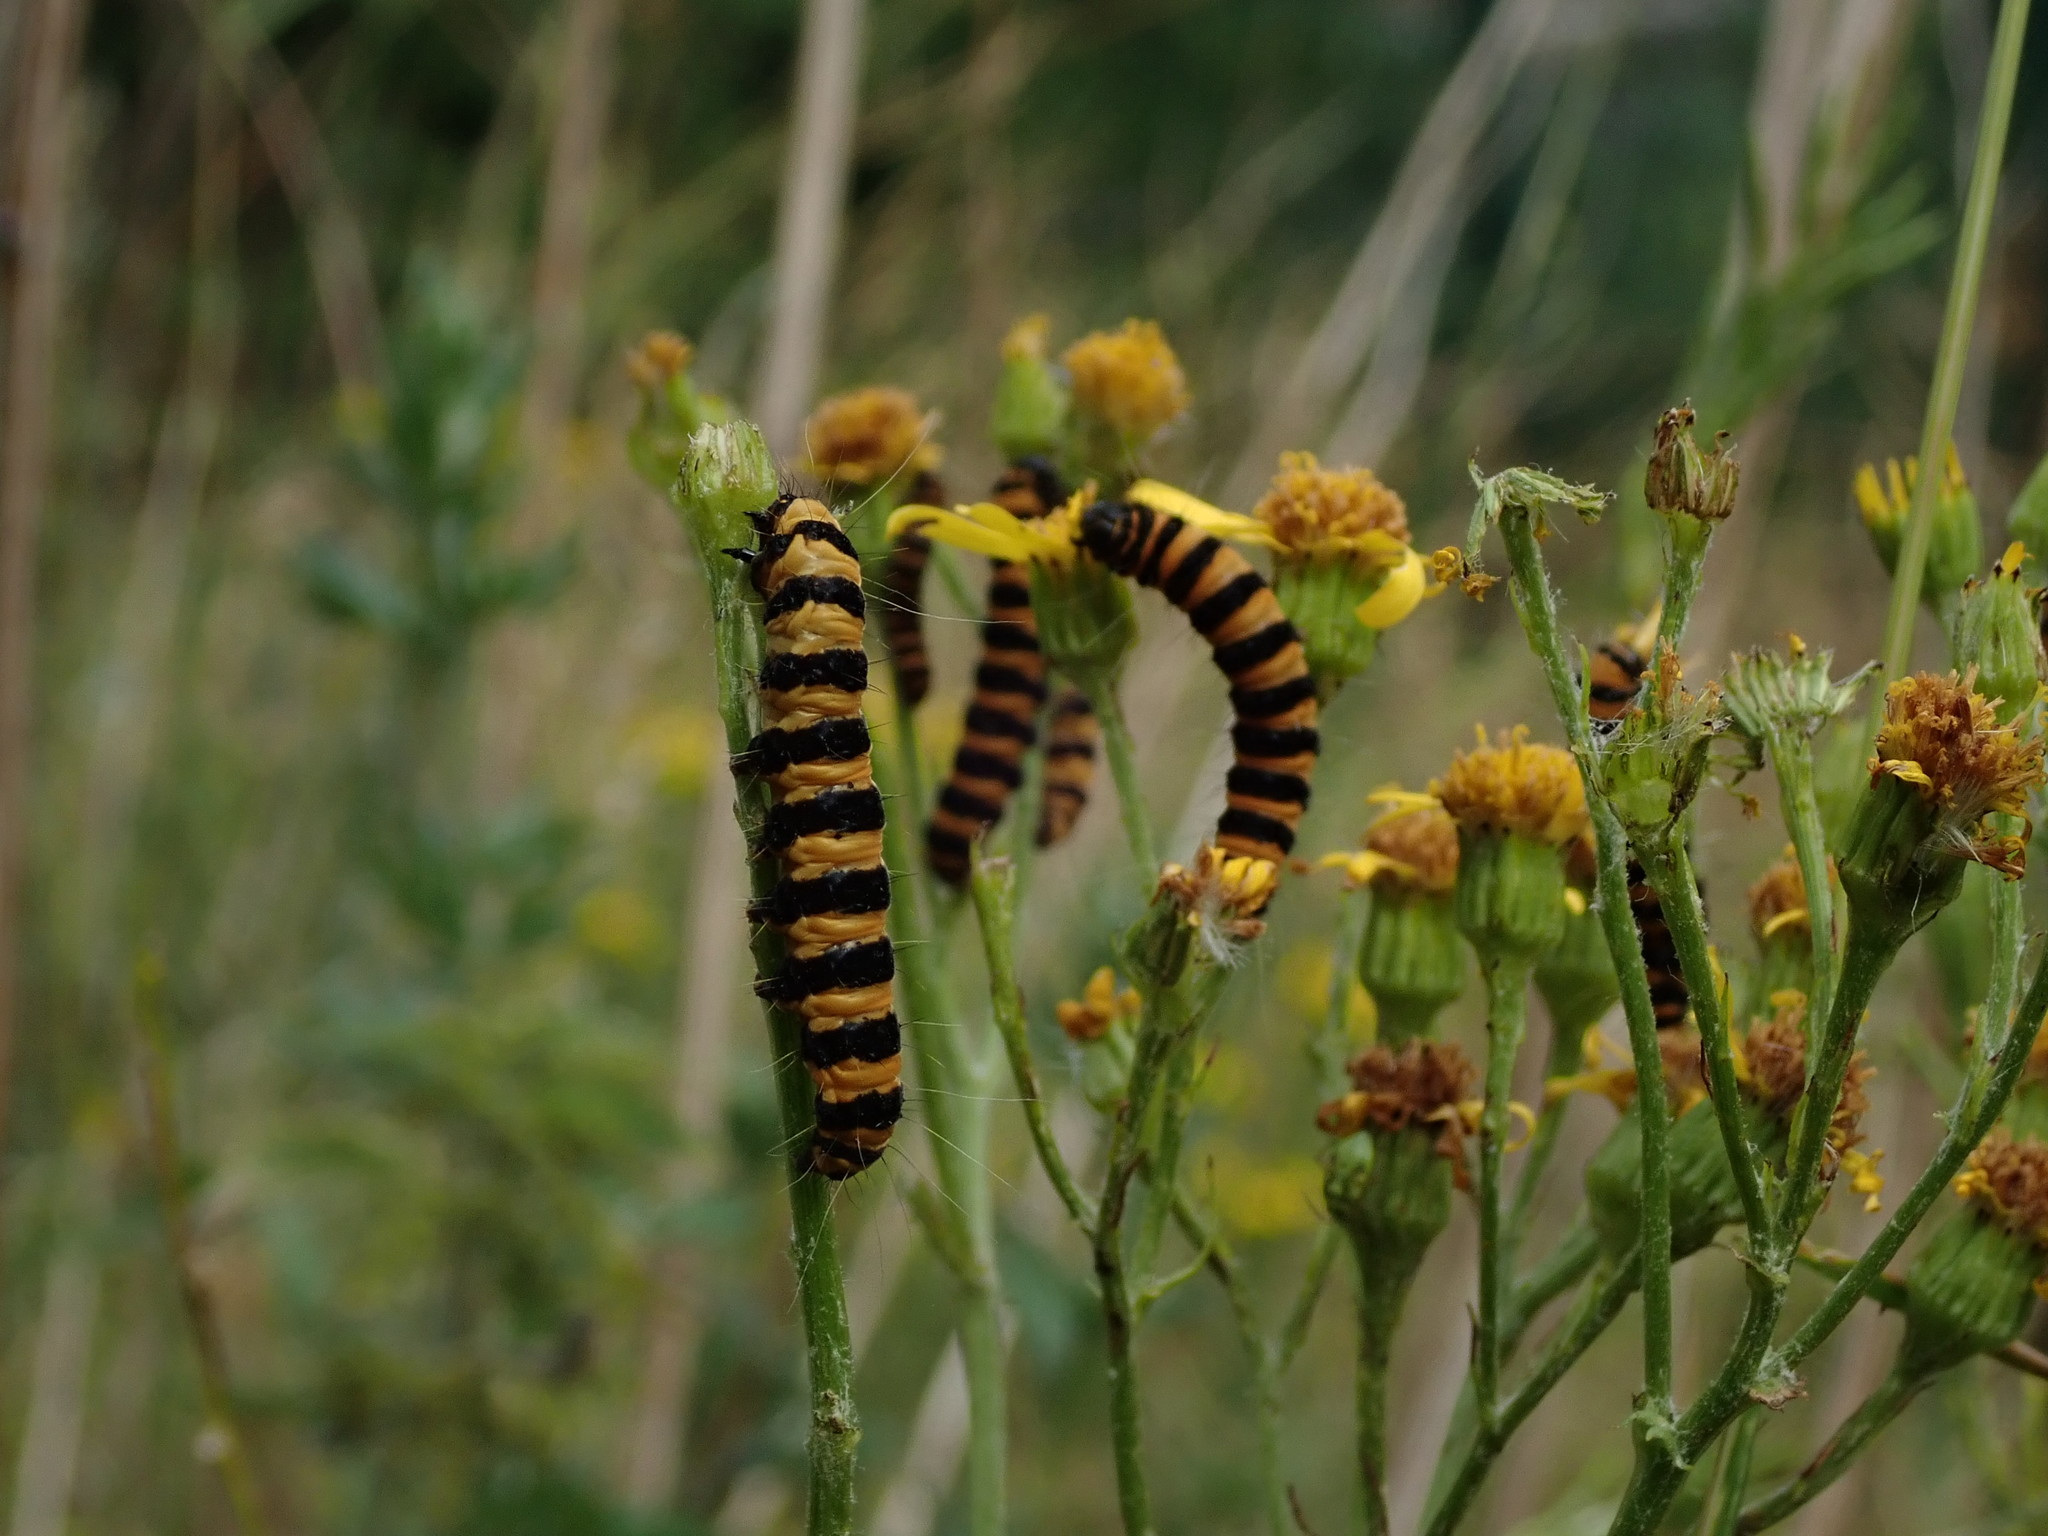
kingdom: Animalia
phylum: Arthropoda
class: Insecta
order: Lepidoptera
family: Erebidae
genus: Tyria
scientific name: Tyria jacobaeae
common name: Cinnabar
